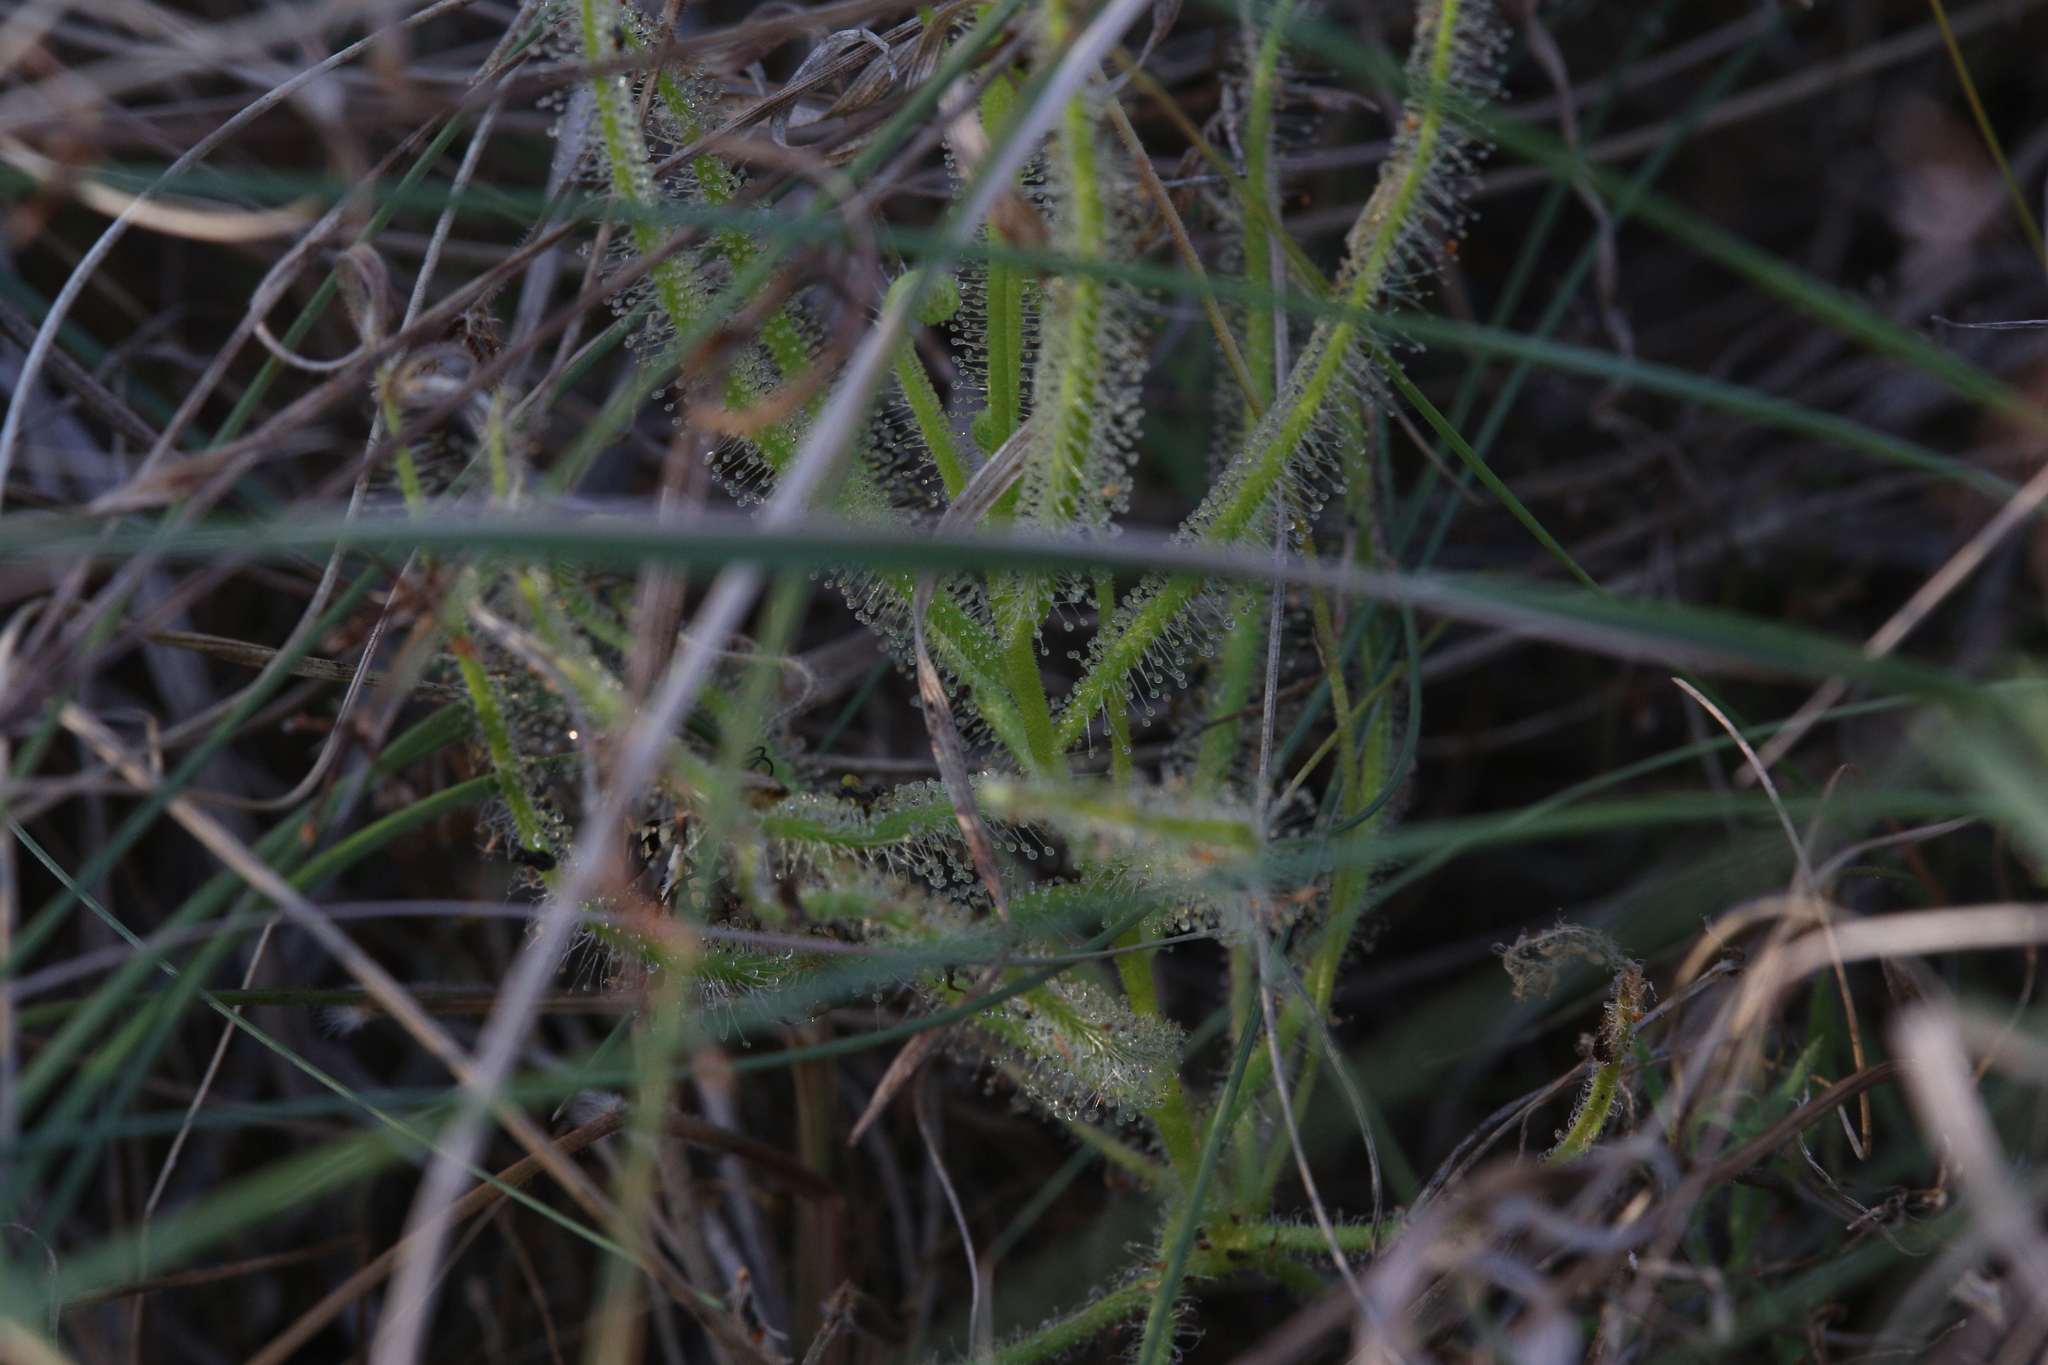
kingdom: Plantae
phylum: Tracheophyta
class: Magnoliopsida
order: Caryophyllales
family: Droseraceae
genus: Drosera
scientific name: Drosera margaritacea
